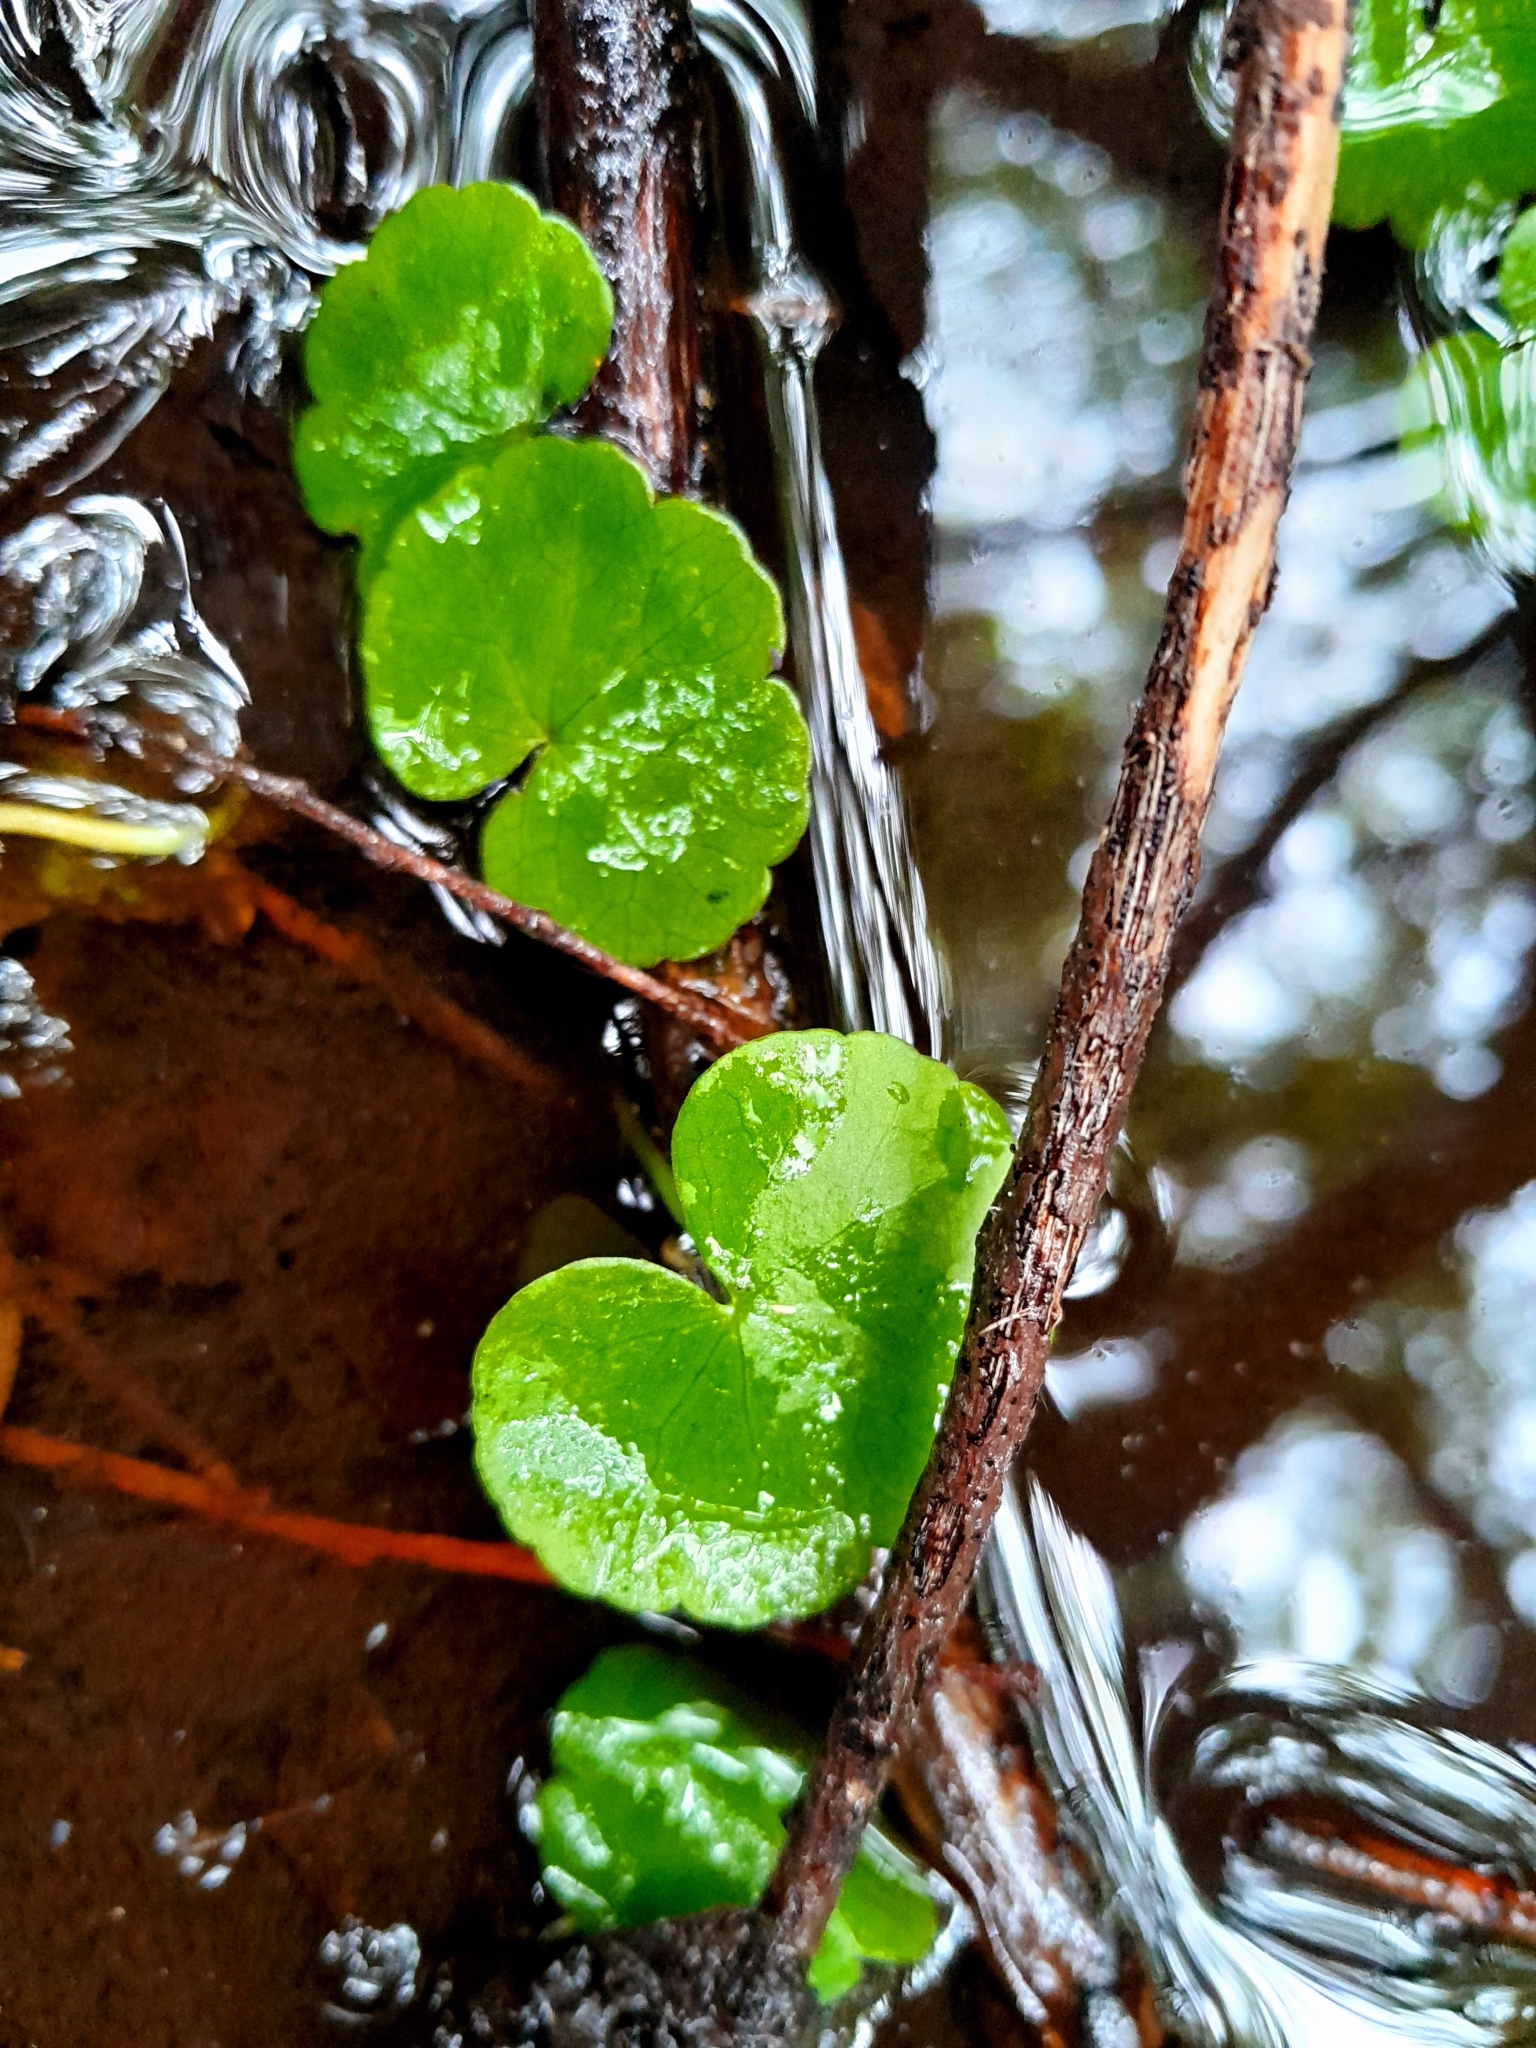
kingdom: Plantae
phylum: Tracheophyta
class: Magnoliopsida
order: Apiales
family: Araliaceae
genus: Hydrocotyle
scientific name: Hydrocotyle pterocarpa
